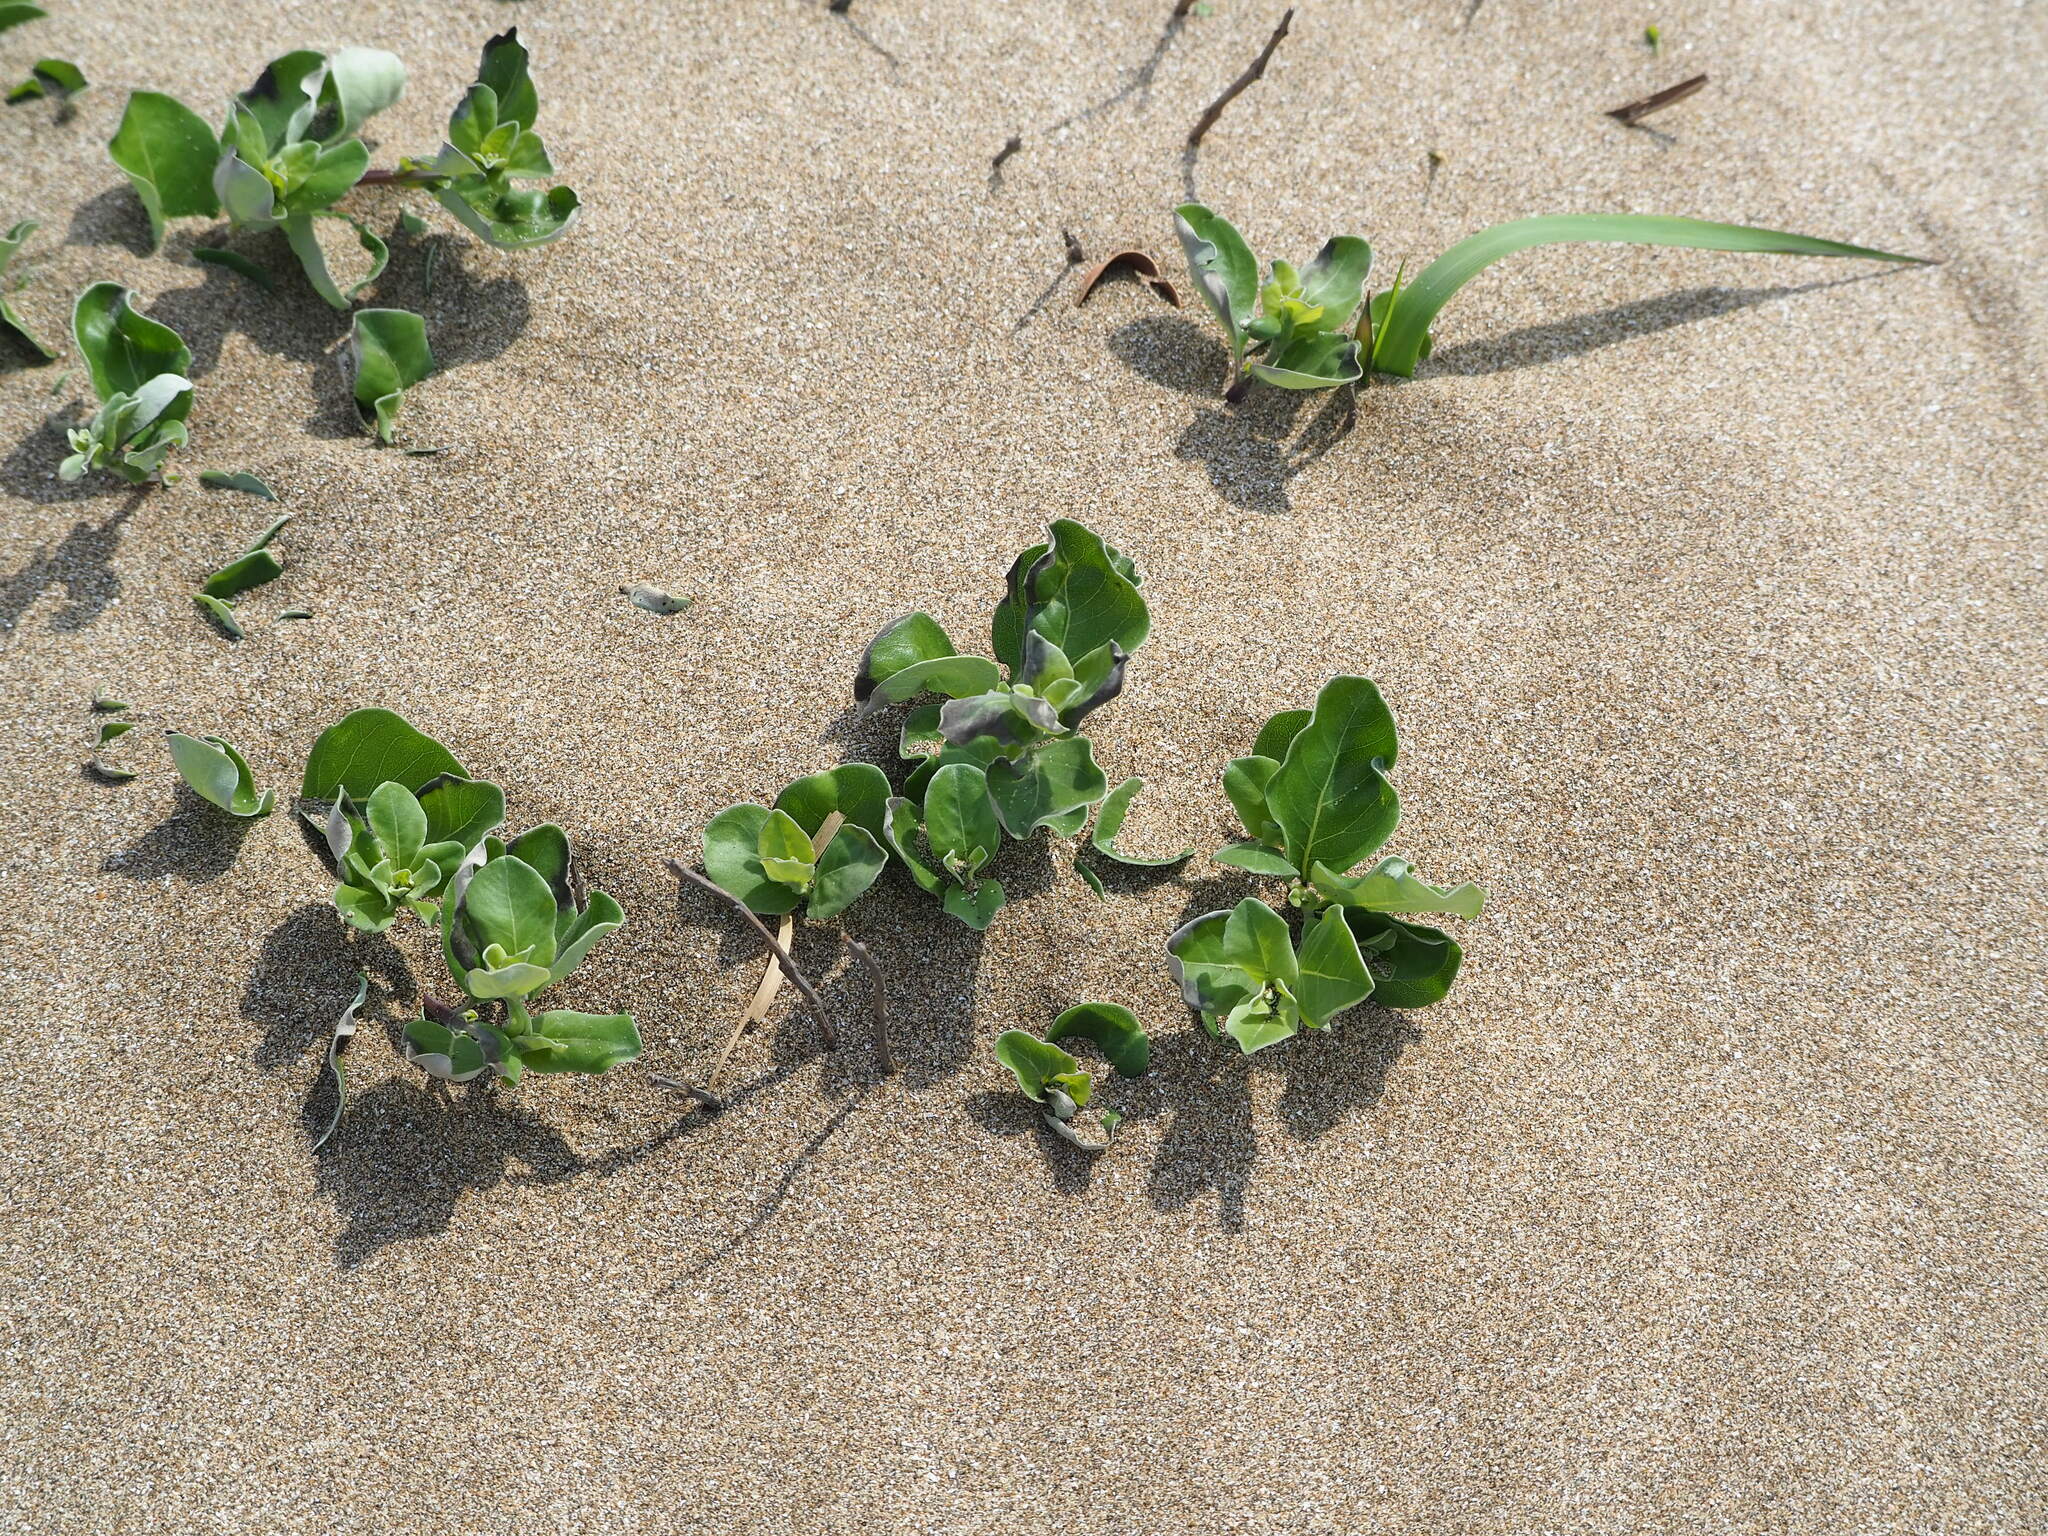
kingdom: Plantae
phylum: Tracheophyta
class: Magnoliopsida
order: Lamiales
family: Lamiaceae
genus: Vitex
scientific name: Vitex rotundifolia
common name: Beach vitex
